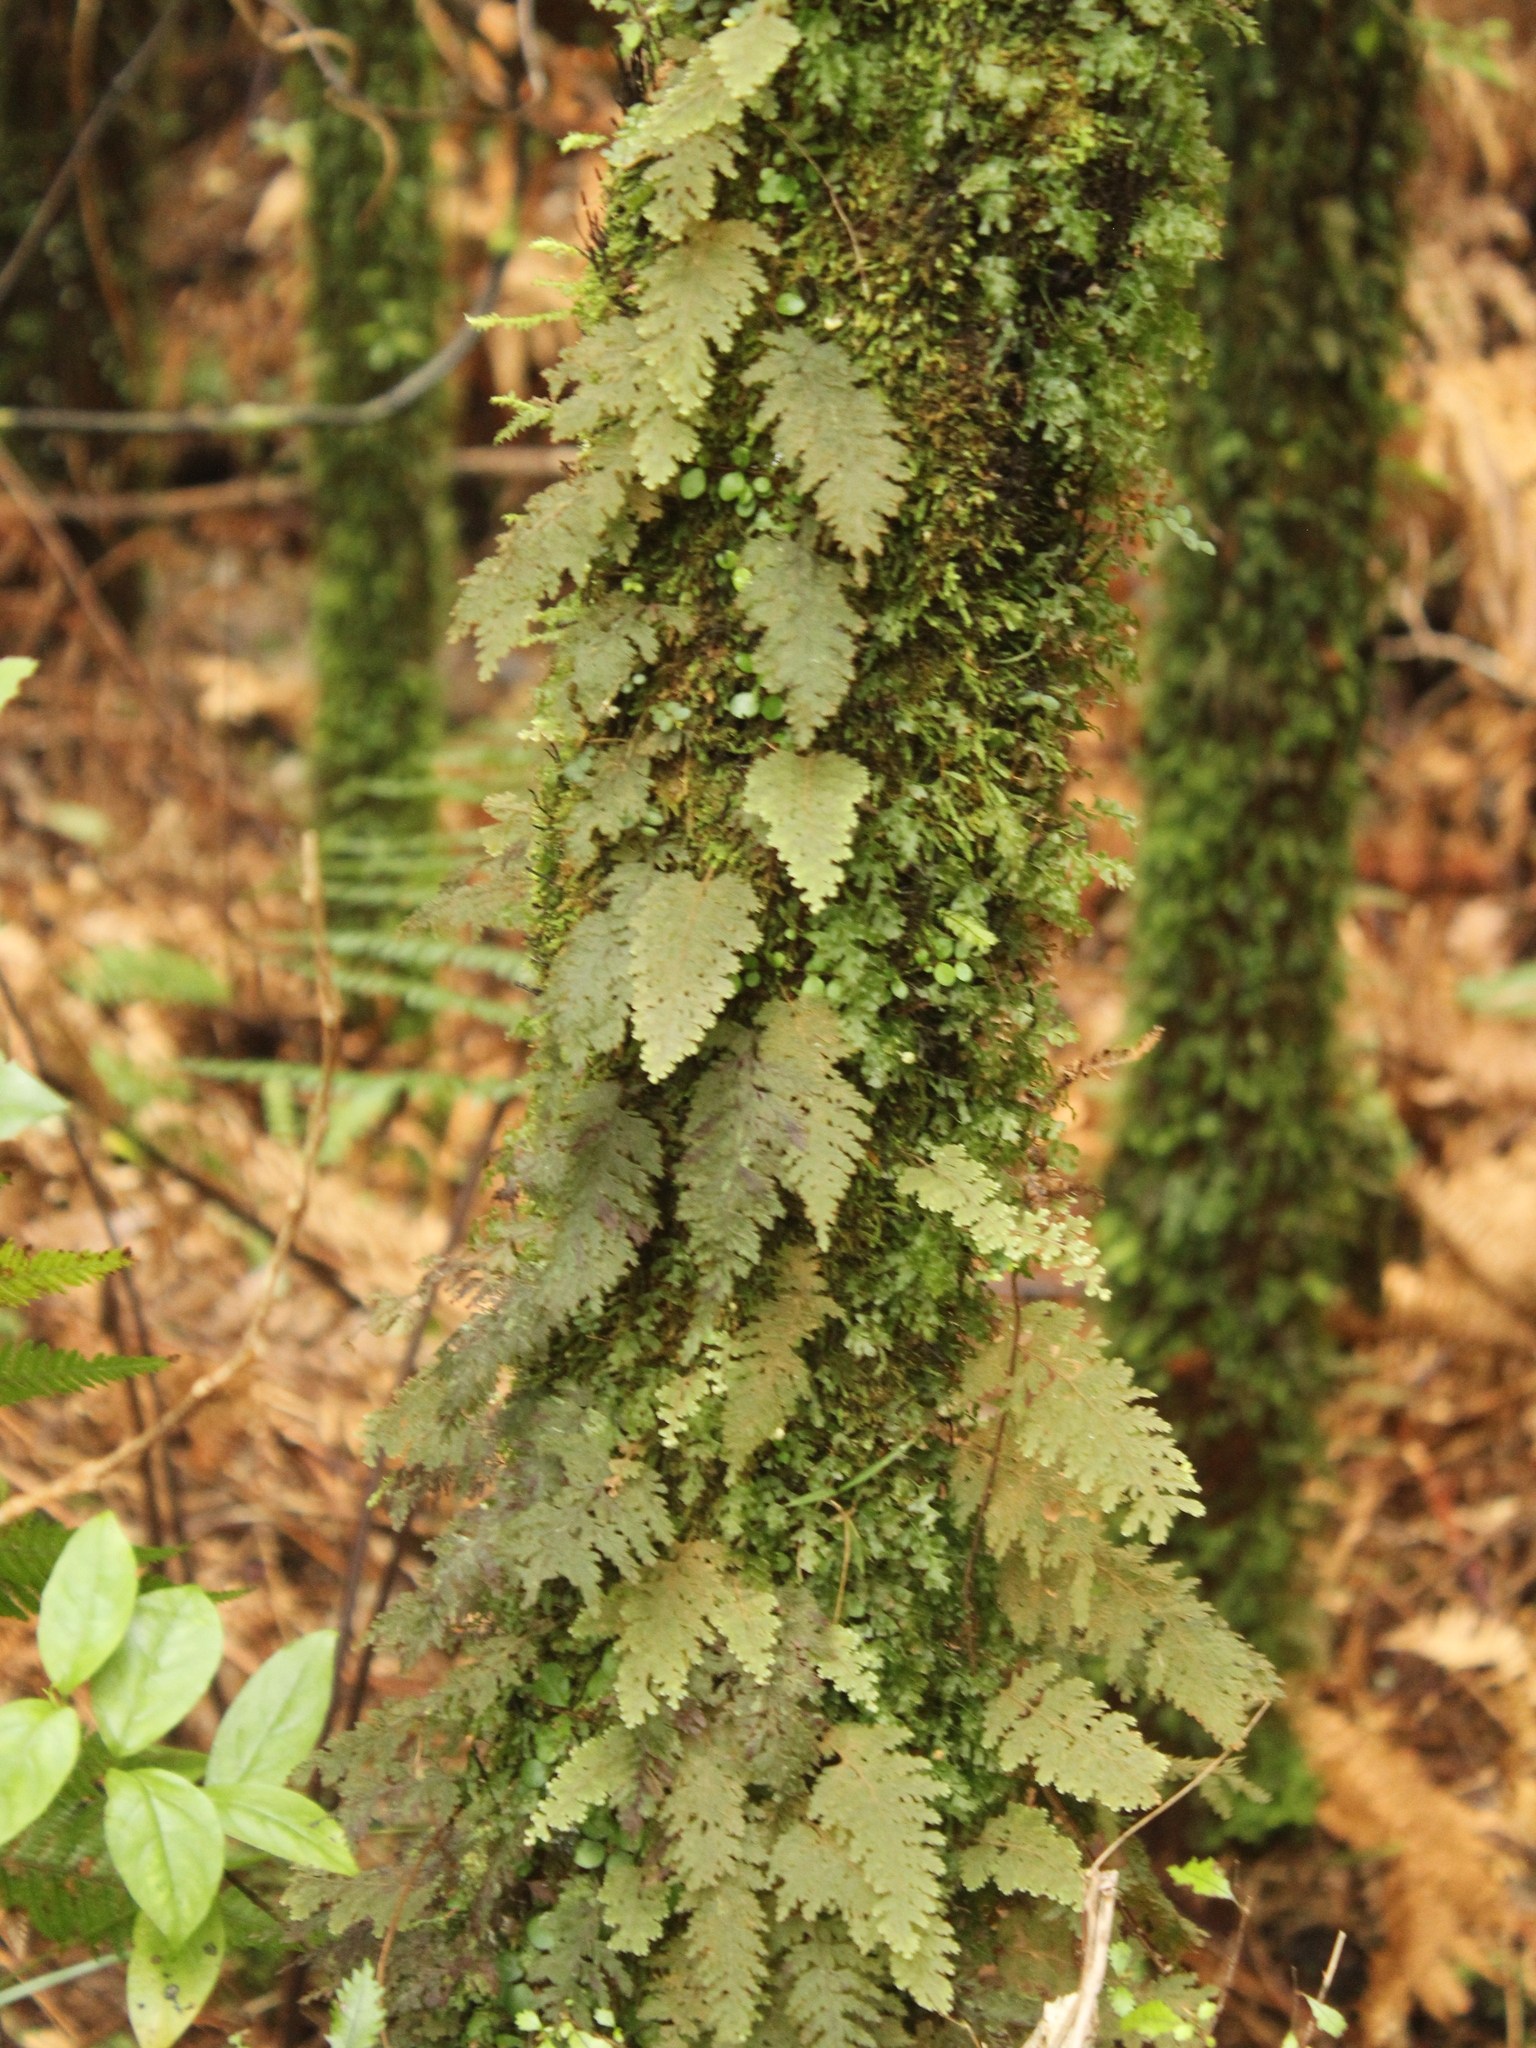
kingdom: Plantae
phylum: Tracheophyta
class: Polypodiopsida
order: Hymenophyllales
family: Hymenophyllaceae
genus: Hymenophyllum
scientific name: Hymenophyllum frankliniae
